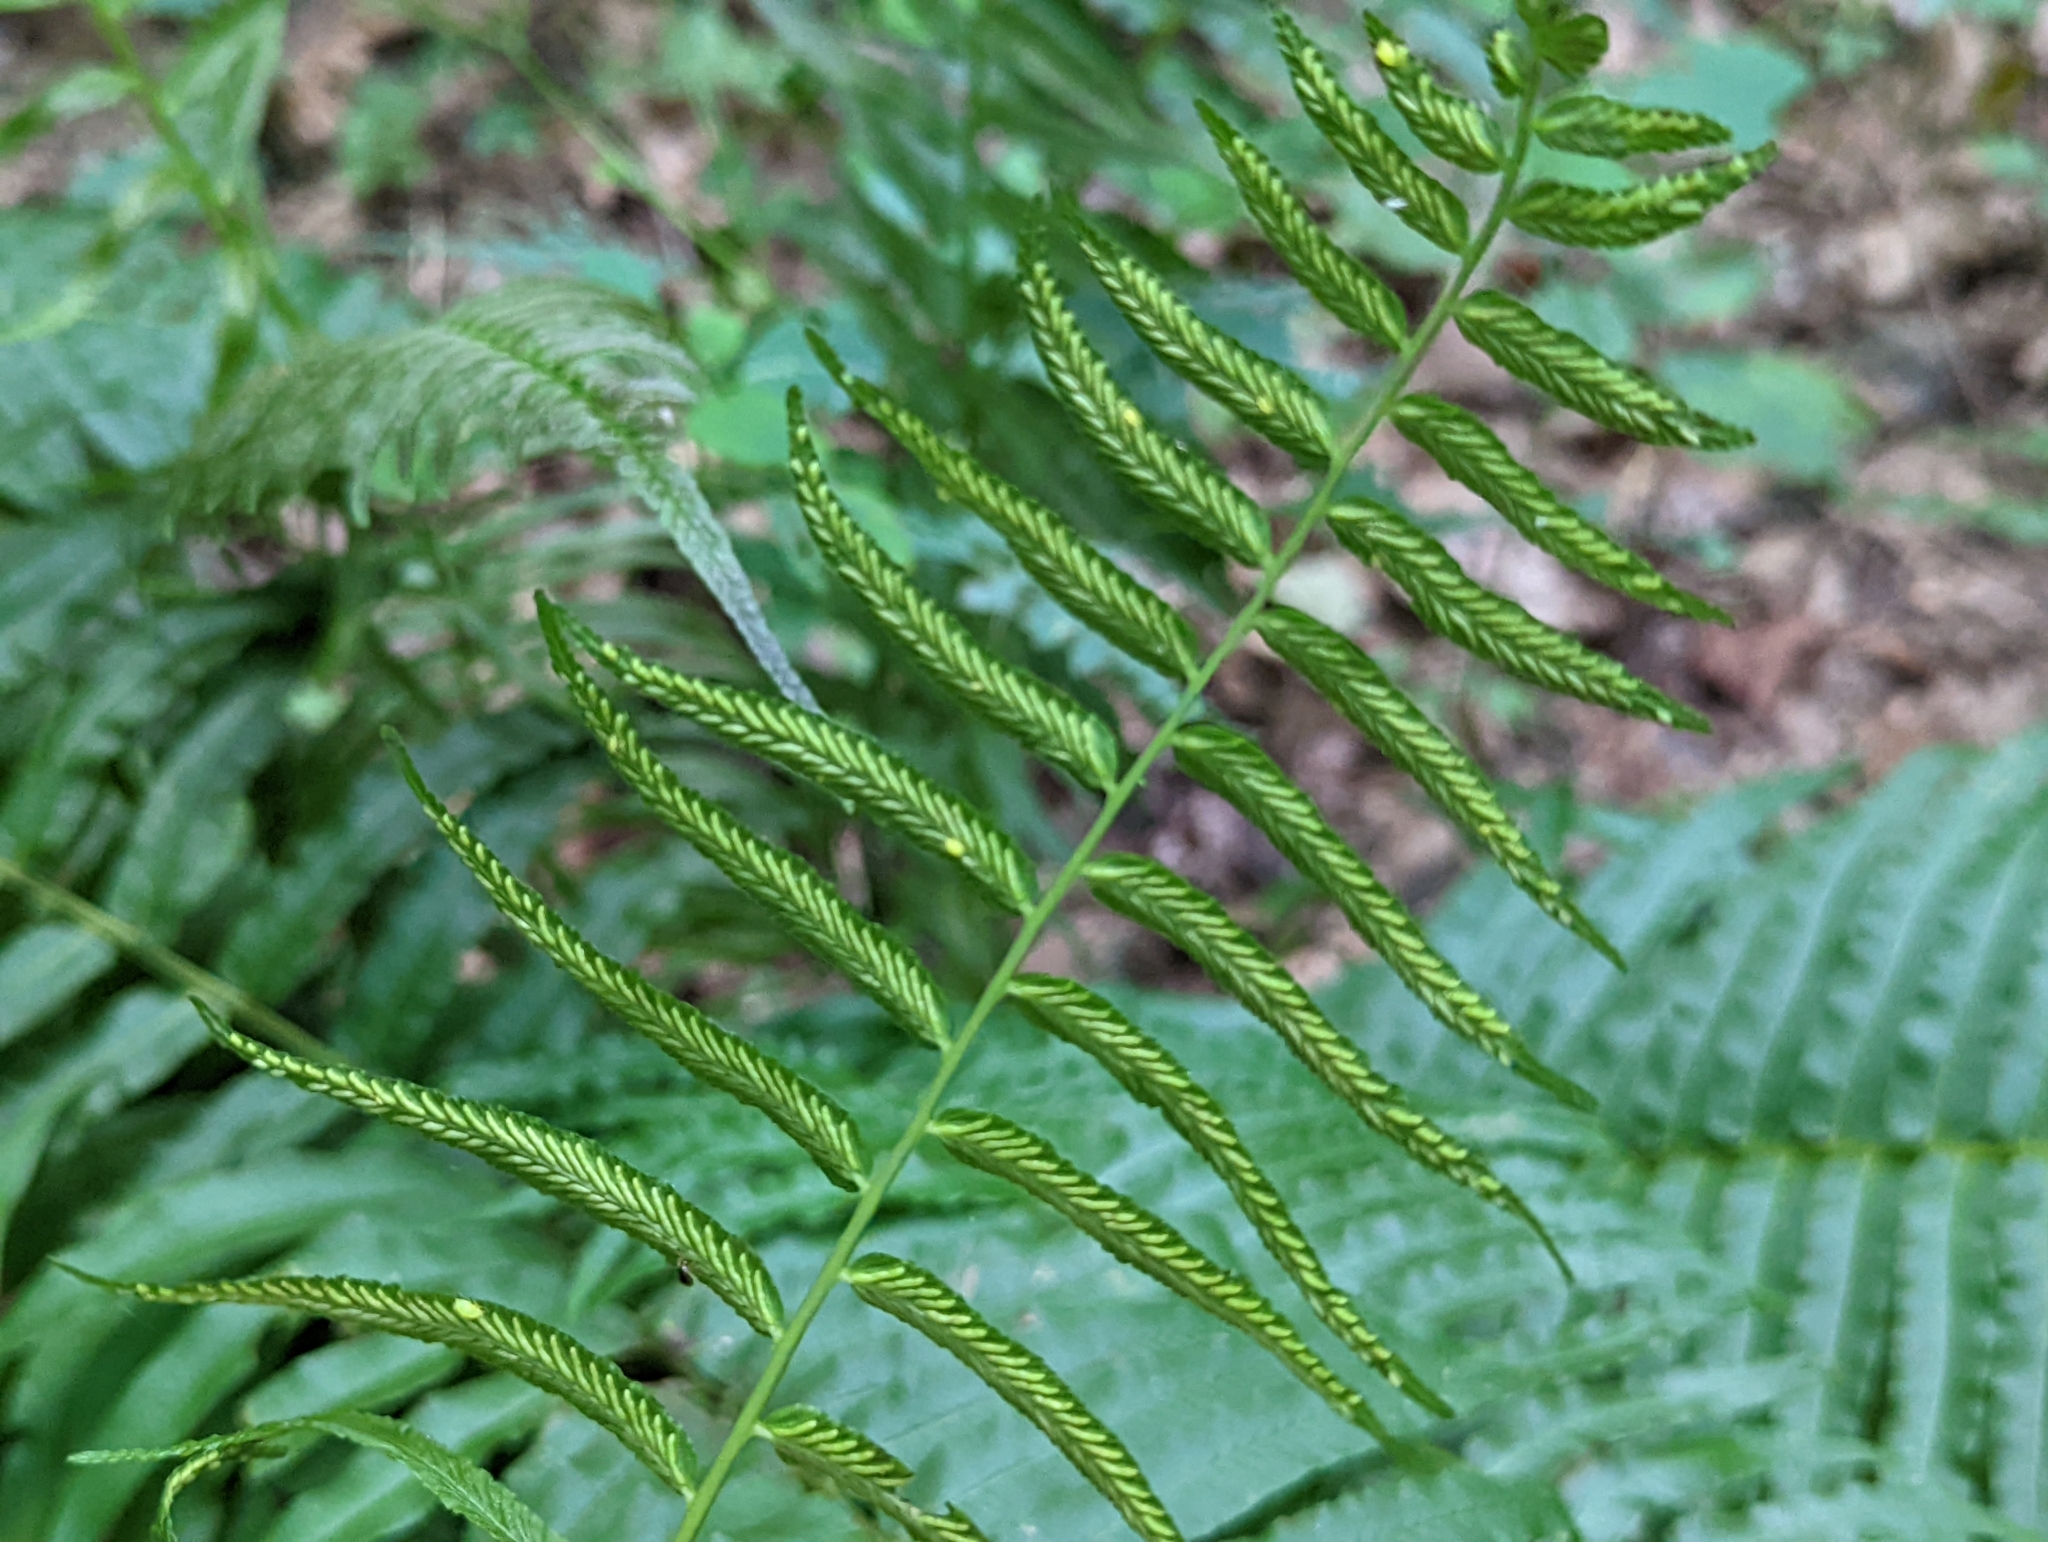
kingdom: Plantae
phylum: Tracheophyta
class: Polypodiopsida
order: Polypodiales
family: Diplaziopsidaceae
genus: Homalosorus
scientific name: Homalosorus pycnocarpos
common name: Glade fern
